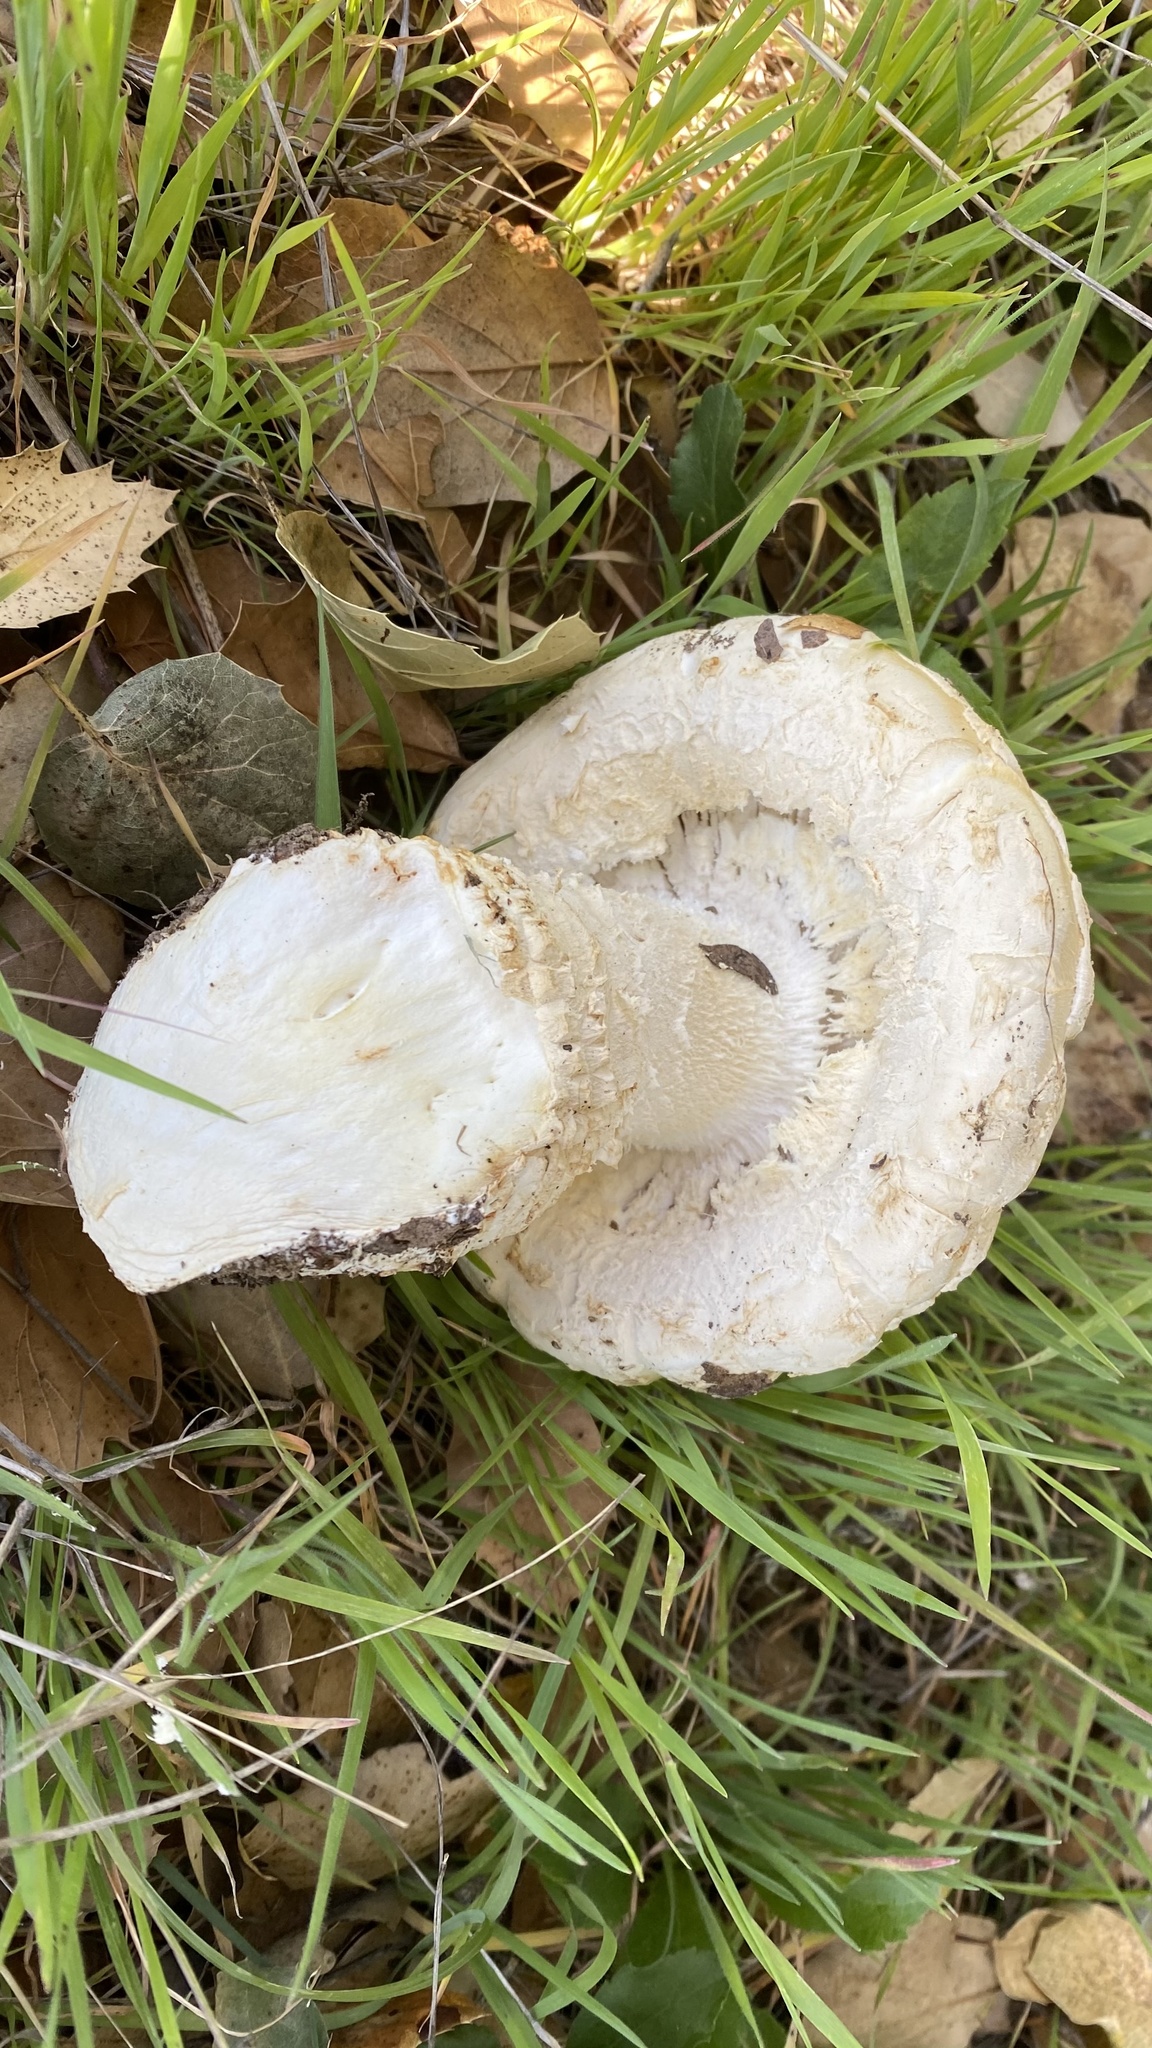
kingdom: Fungi
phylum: Basidiomycota
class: Agaricomycetes
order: Agaricales
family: Amanitaceae
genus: Amanita
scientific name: Amanita magniverrucata
